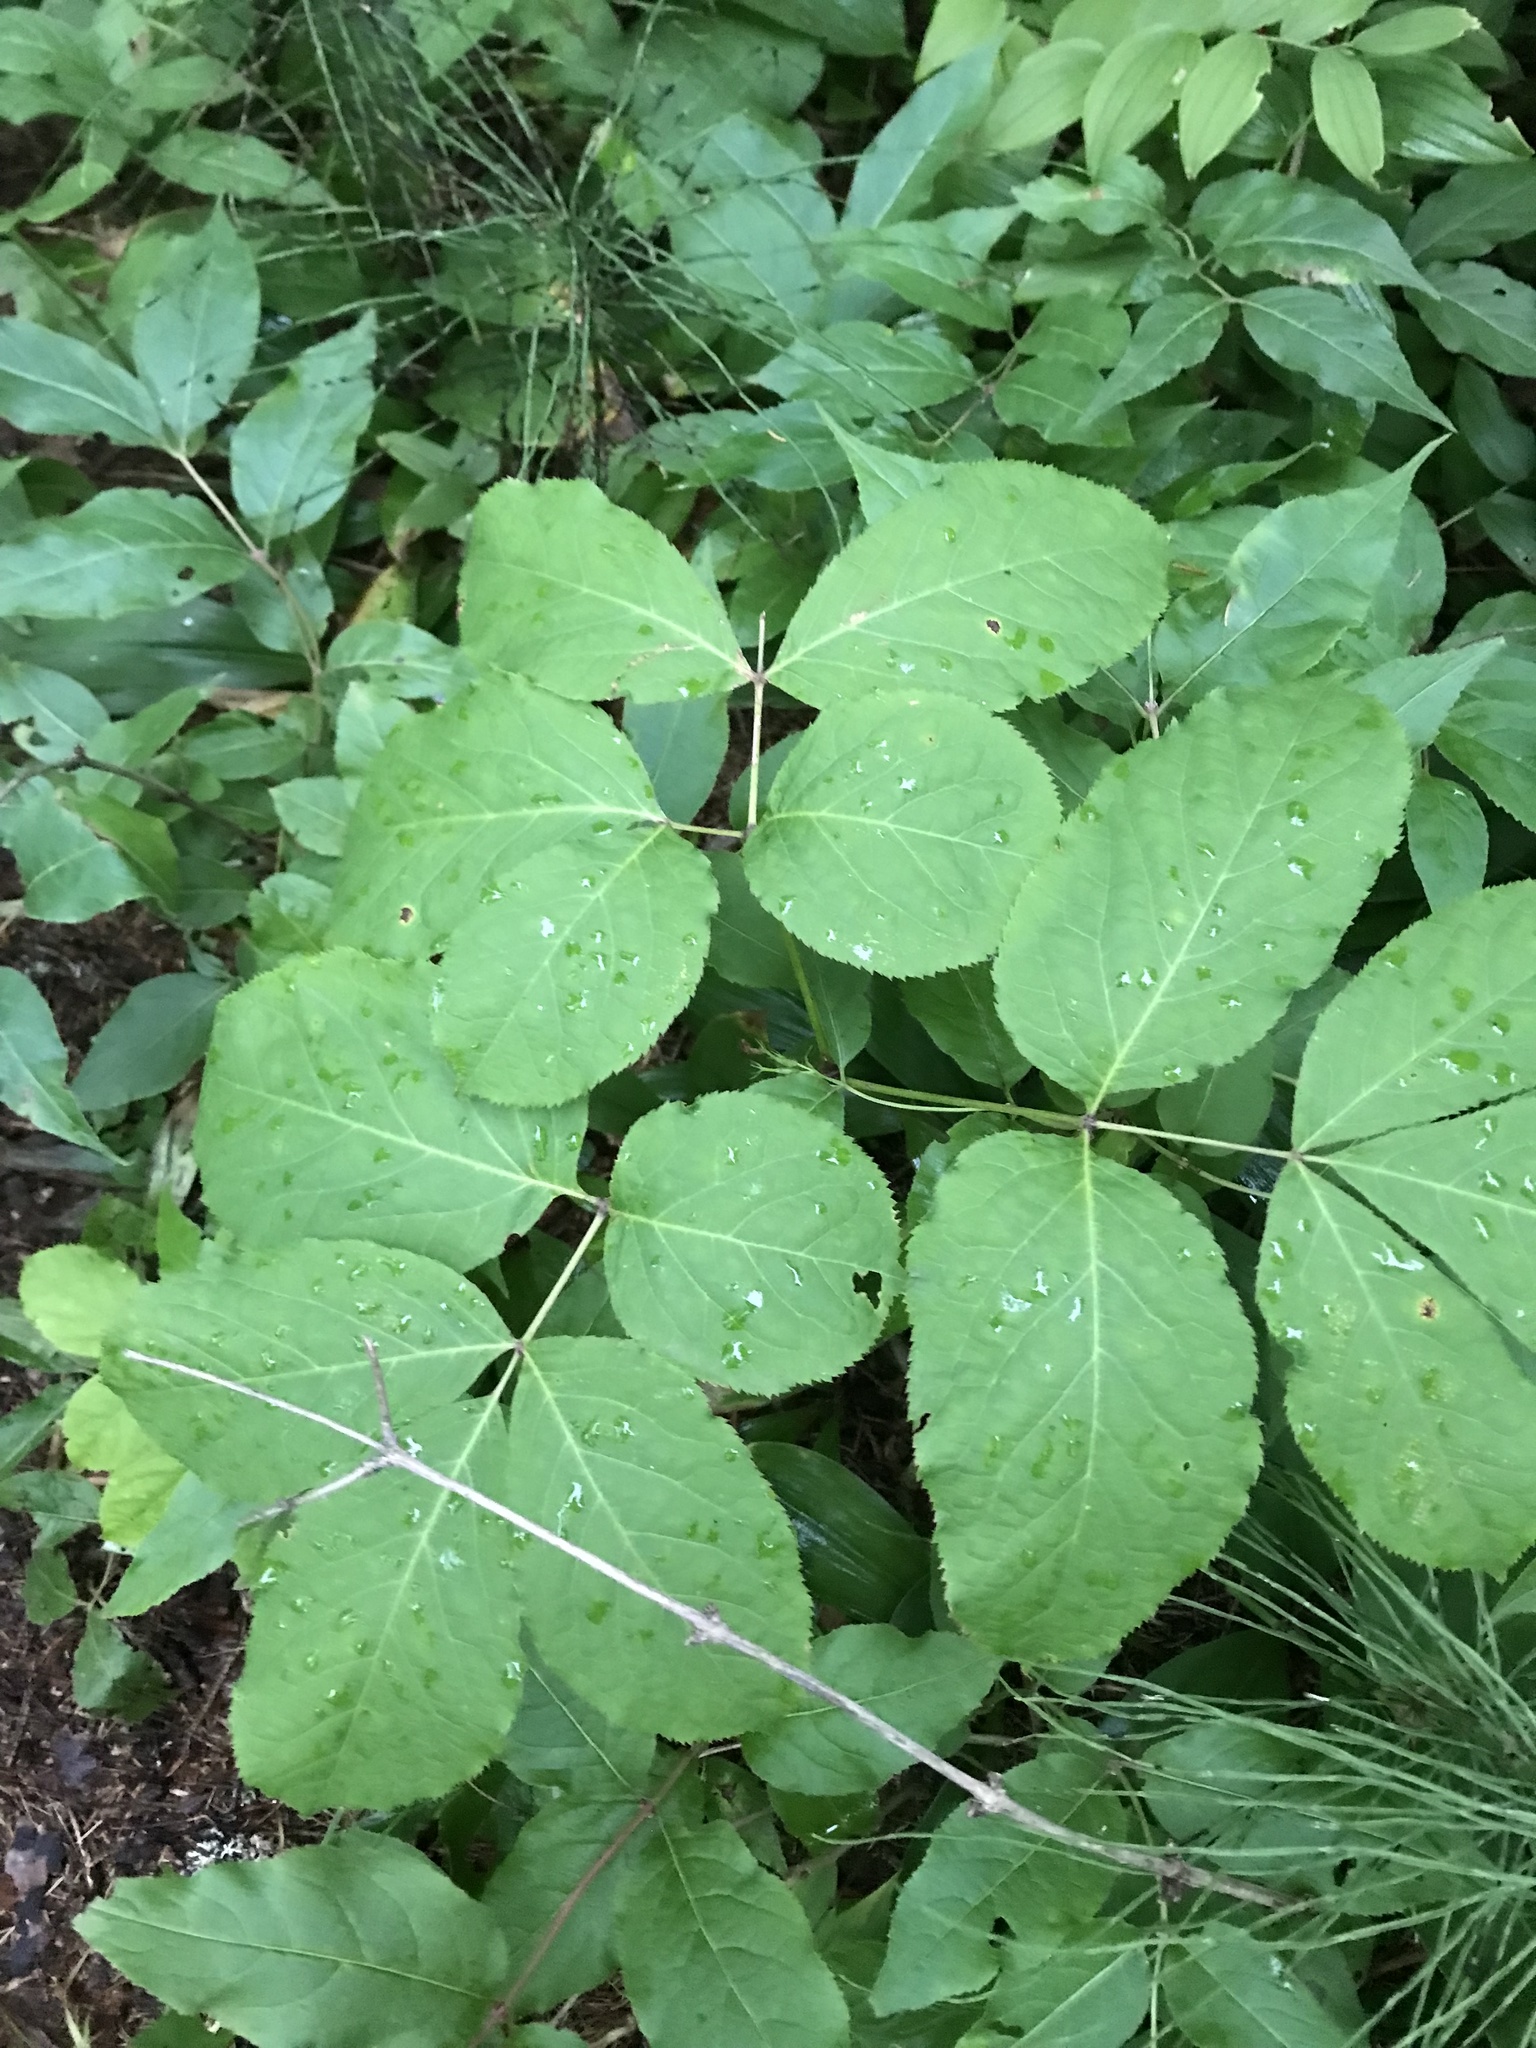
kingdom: Plantae
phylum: Tracheophyta
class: Magnoliopsida
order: Apiales
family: Araliaceae
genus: Aralia
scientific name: Aralia nudicaulis
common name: Wild sarsaparilla
